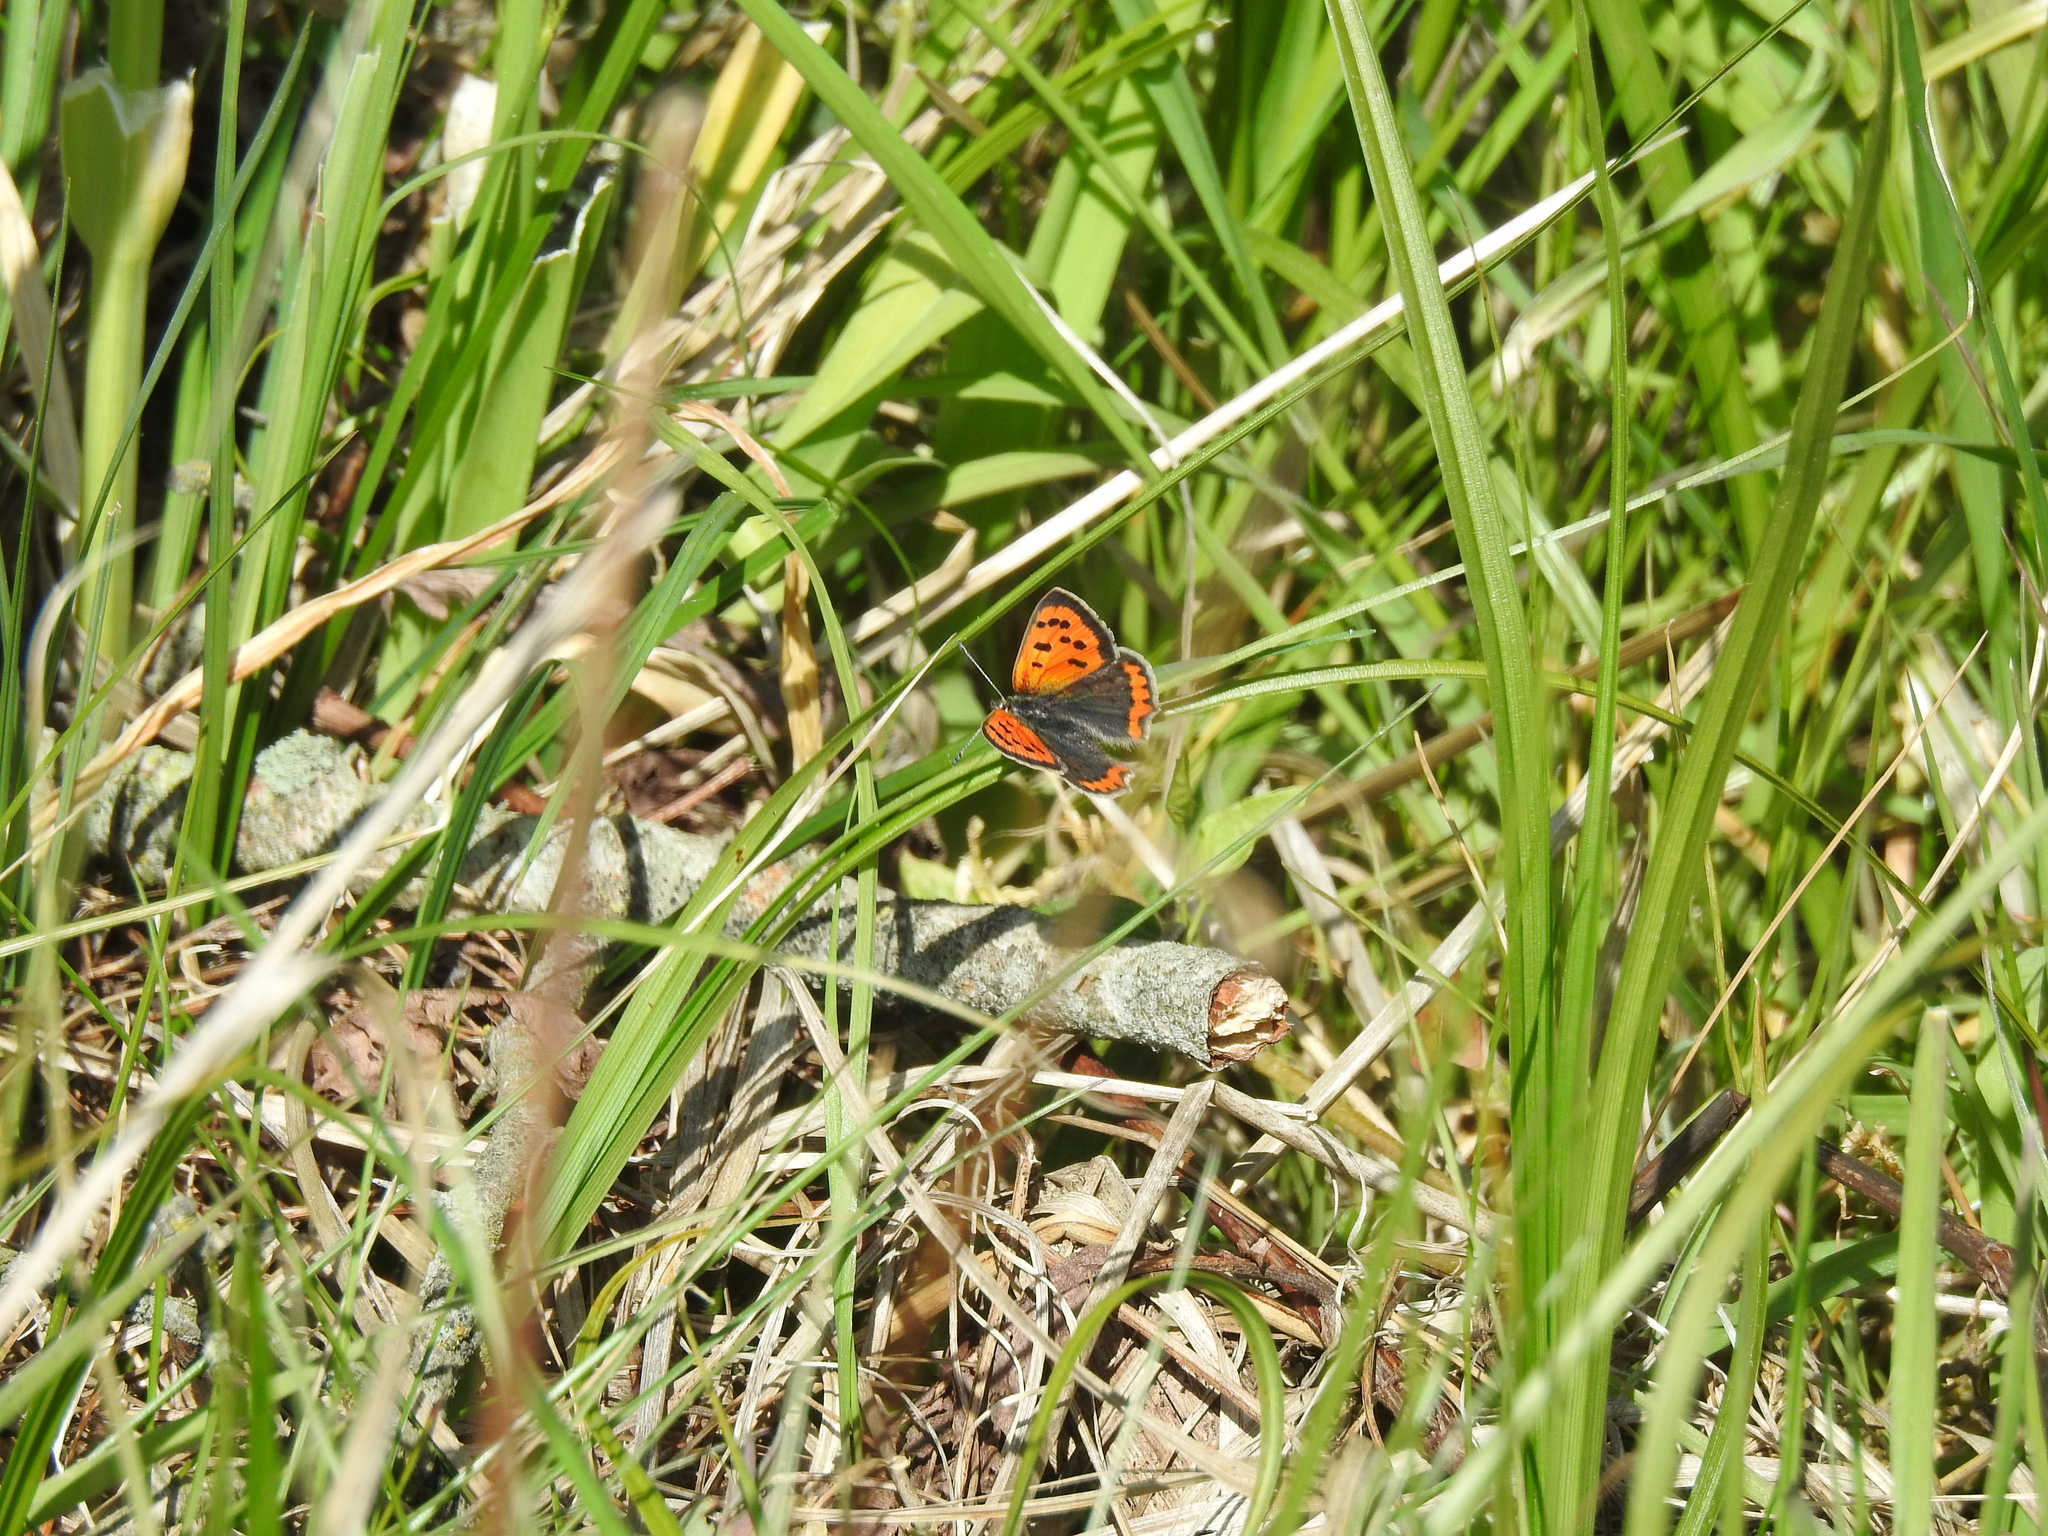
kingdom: Animalia
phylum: Arthropoda
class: Insecta
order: Lepidoptera
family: Lycaenidae
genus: Lycaena
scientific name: Lycaena phlaeas
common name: Small copper
